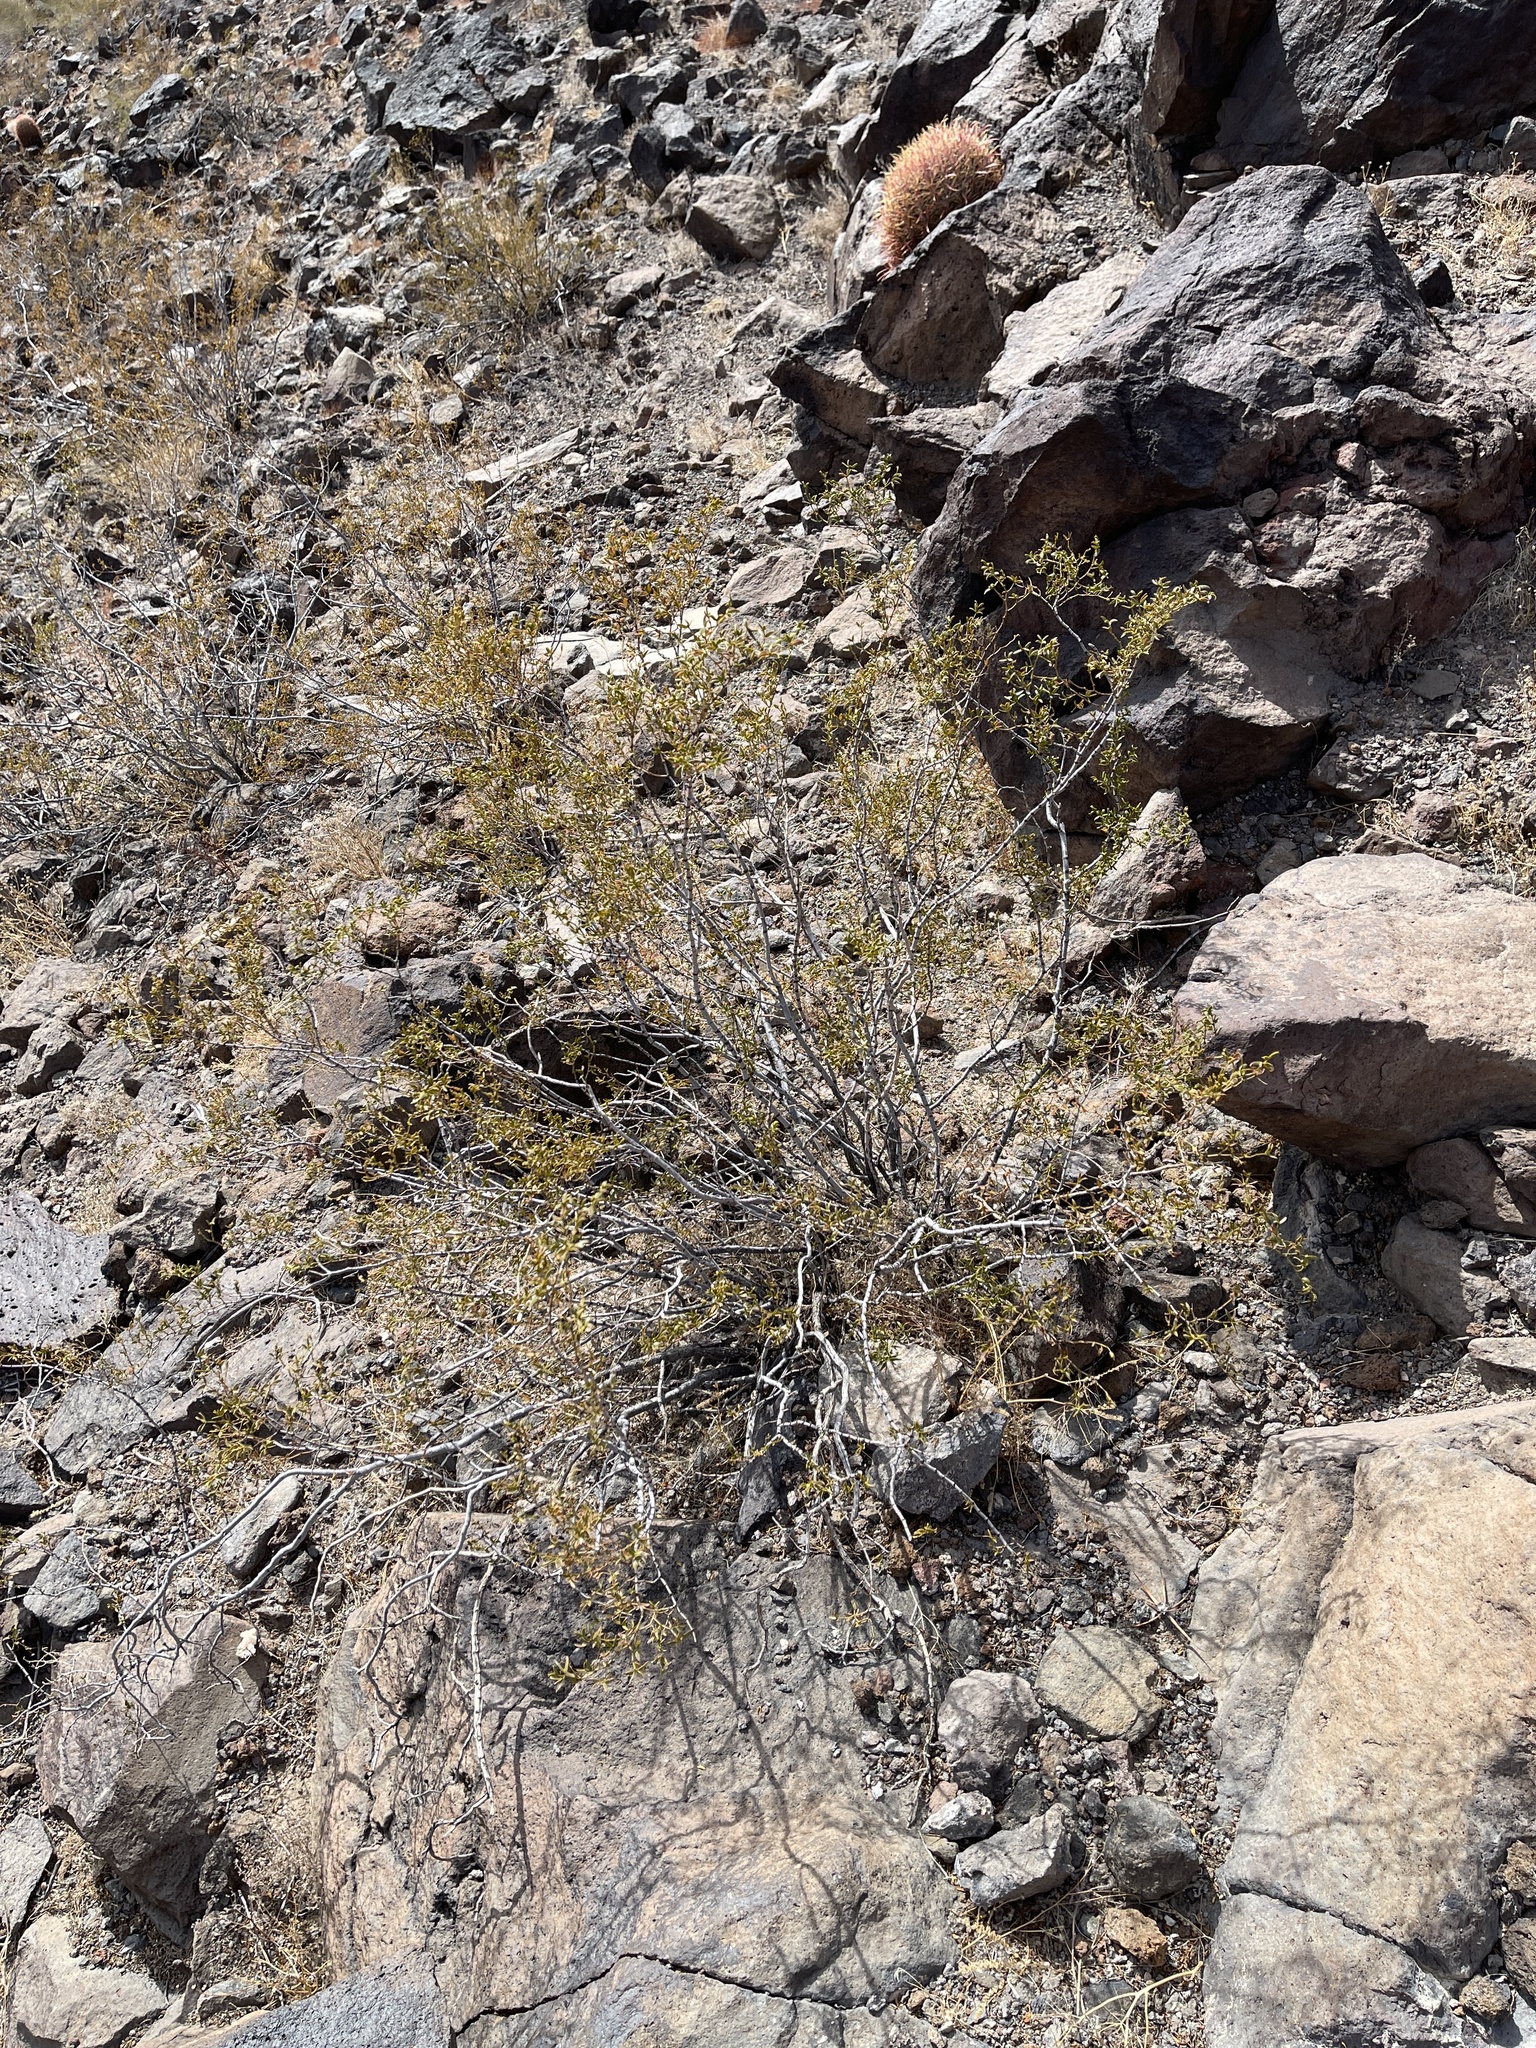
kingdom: Plantae
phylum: Tracheophyta
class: Magnoliopsida
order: Zygophyllales
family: Zygophyllaceae
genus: Larrea
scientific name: Larrea tridentata
